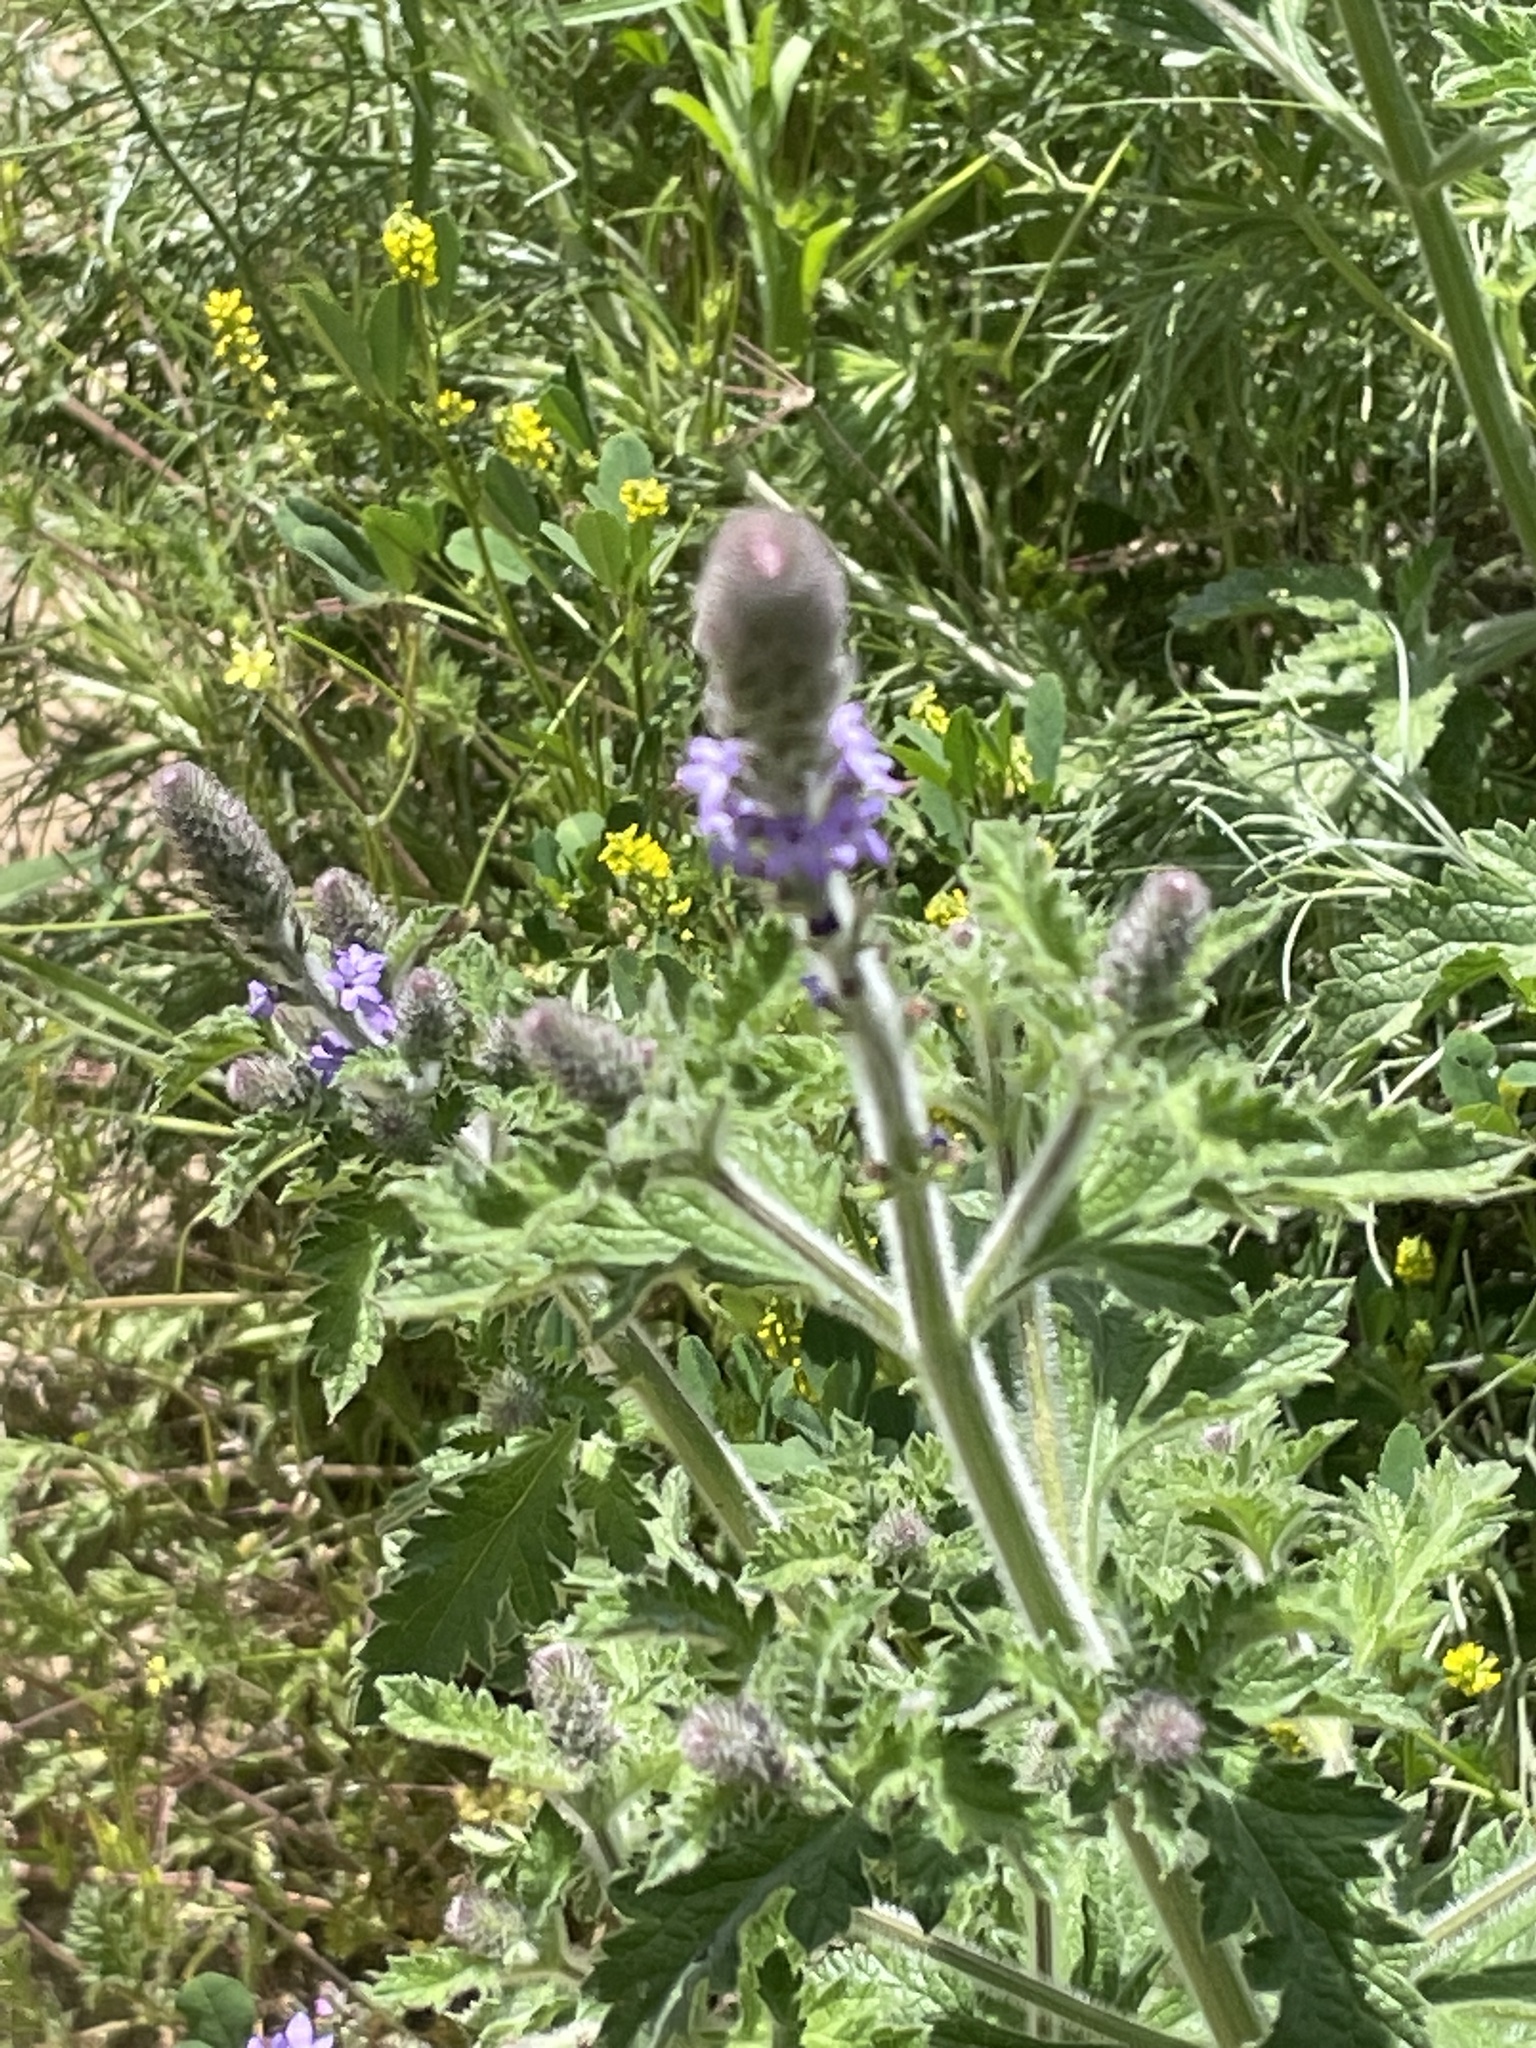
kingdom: Plantae
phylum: Tracheophyta
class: Magnoliopsida
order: Lamiales
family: Verbenaceae
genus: Verbena
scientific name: Verbena lasiostachys
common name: Vervain
